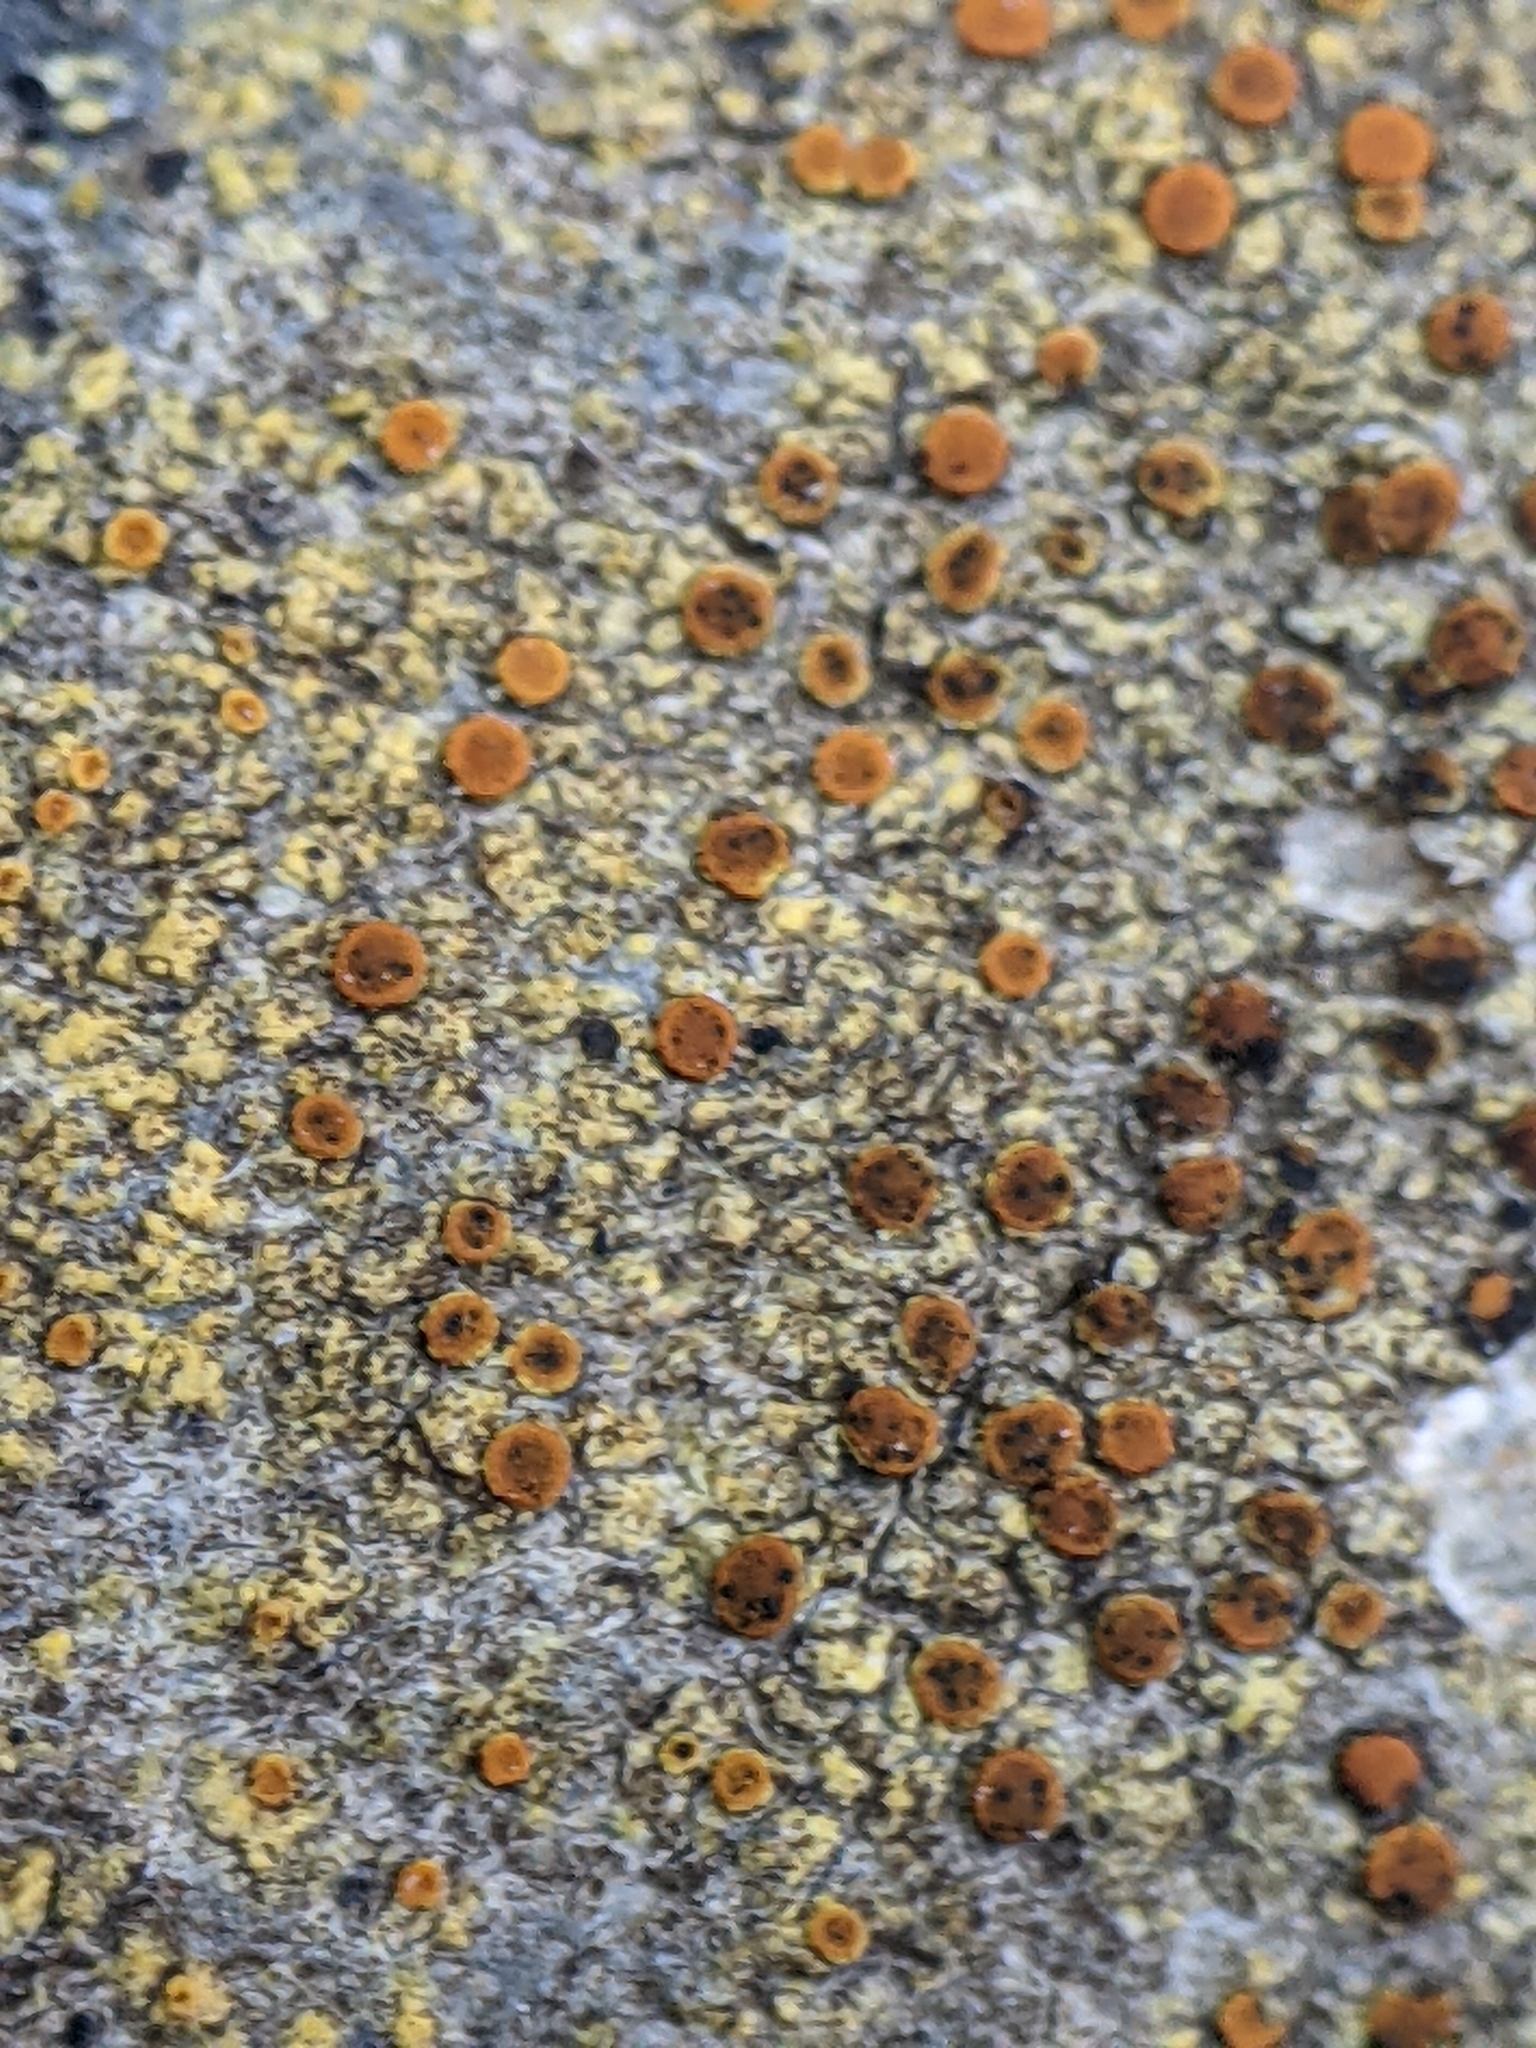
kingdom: Fungi
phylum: Ascomycota
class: Lecanoromycetes
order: Teloschistales
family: Teloschistaceae
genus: Gyalolechia
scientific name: Gyalolechia flavovirescens
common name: Sulphur firedot
